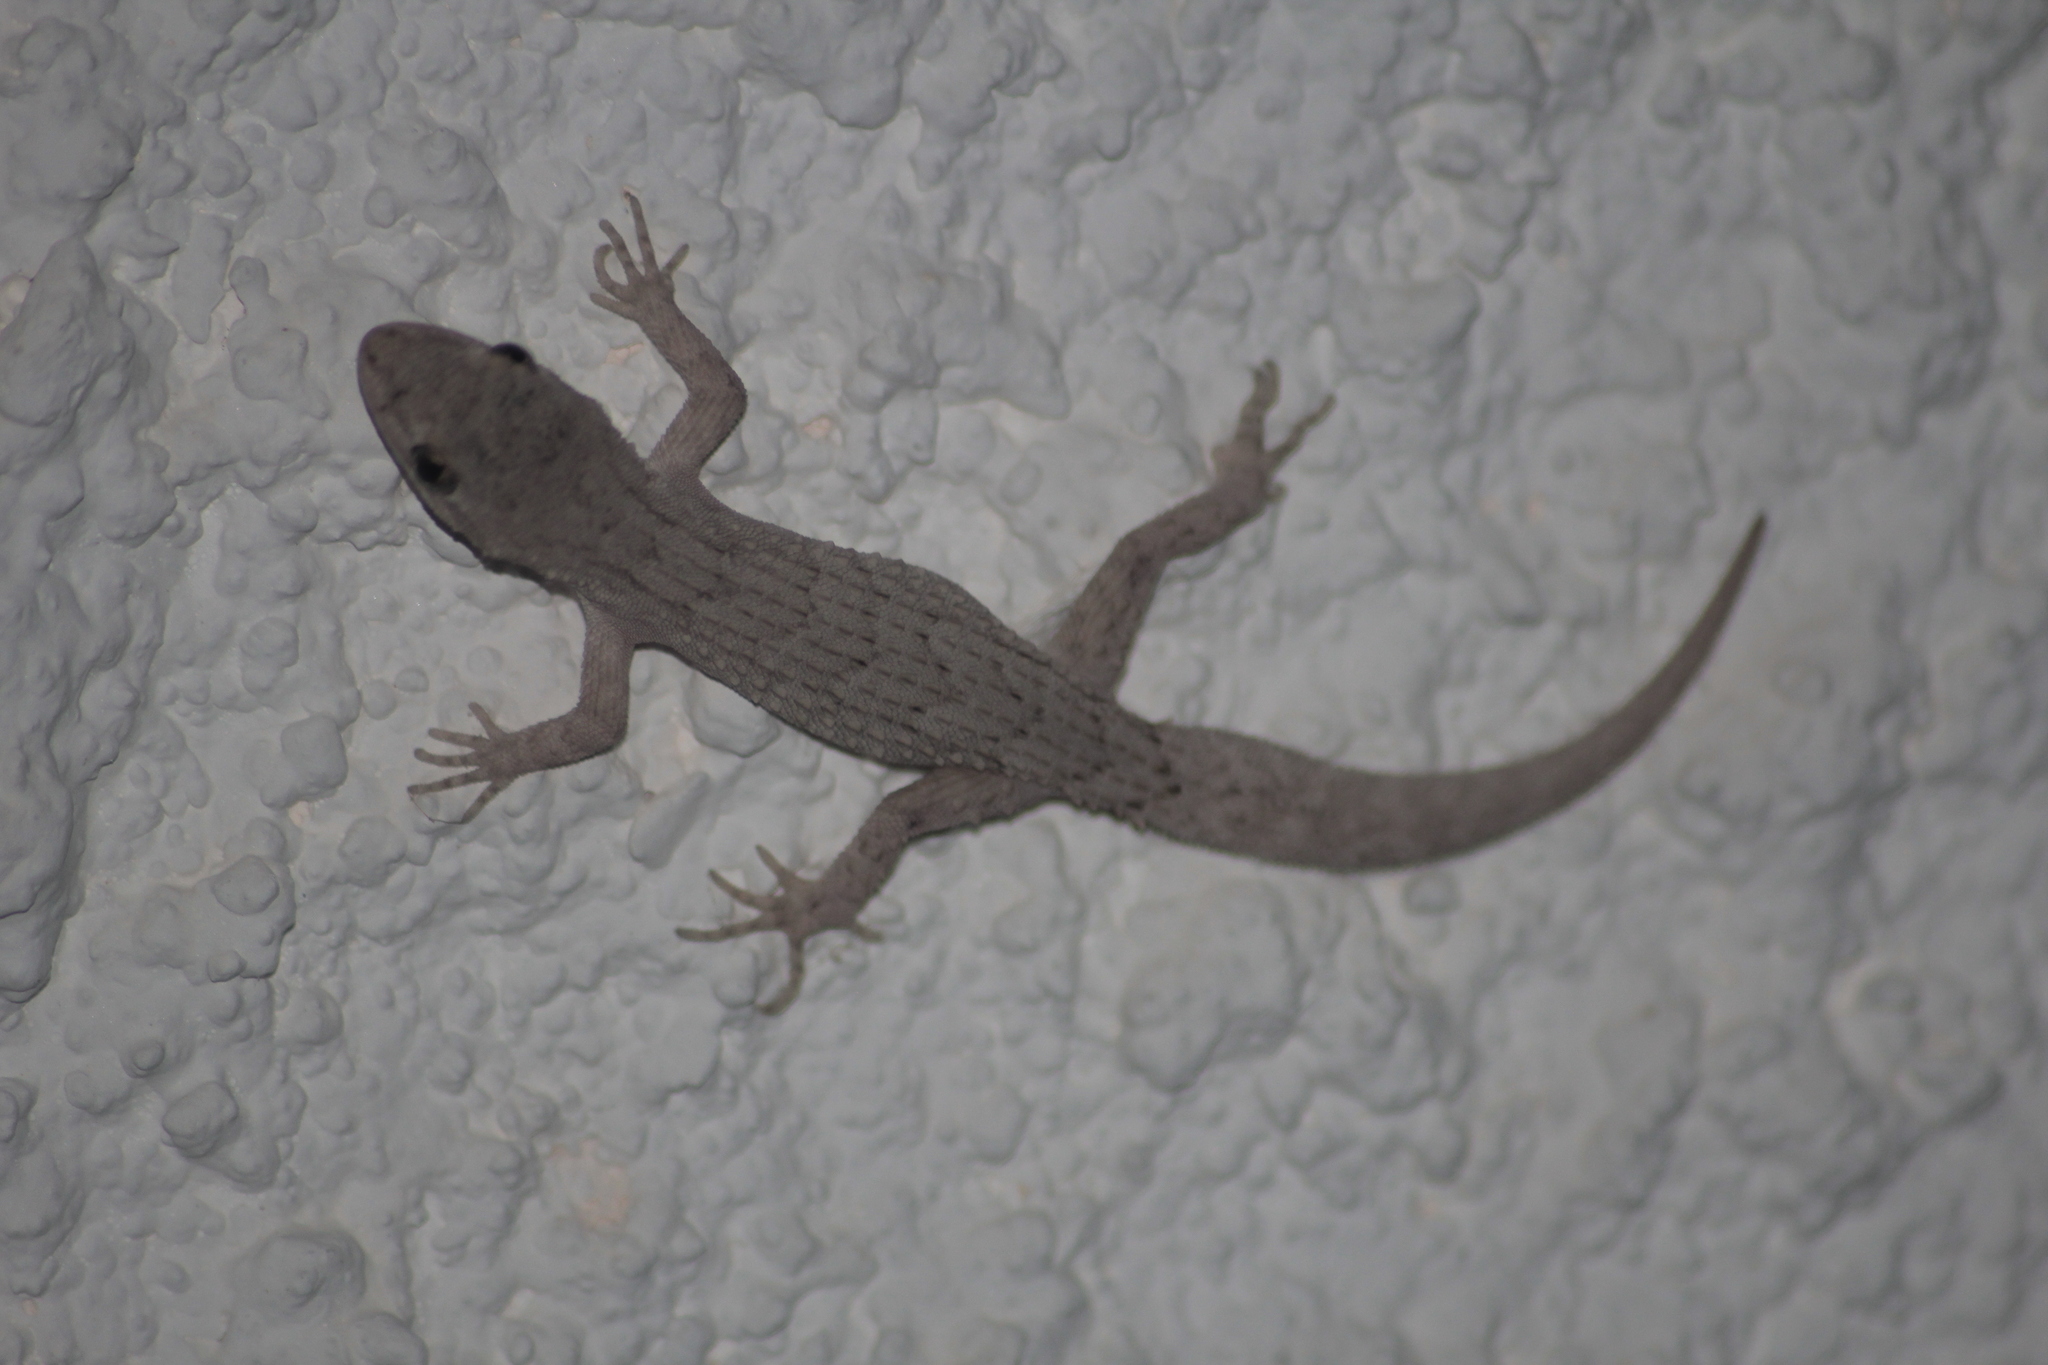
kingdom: Animalia
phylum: Chordata
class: Squamata
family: Gekkonidae
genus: Mediodactylus
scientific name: Mediodactylus orientalis
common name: Mediterranean thin-toed gecko
